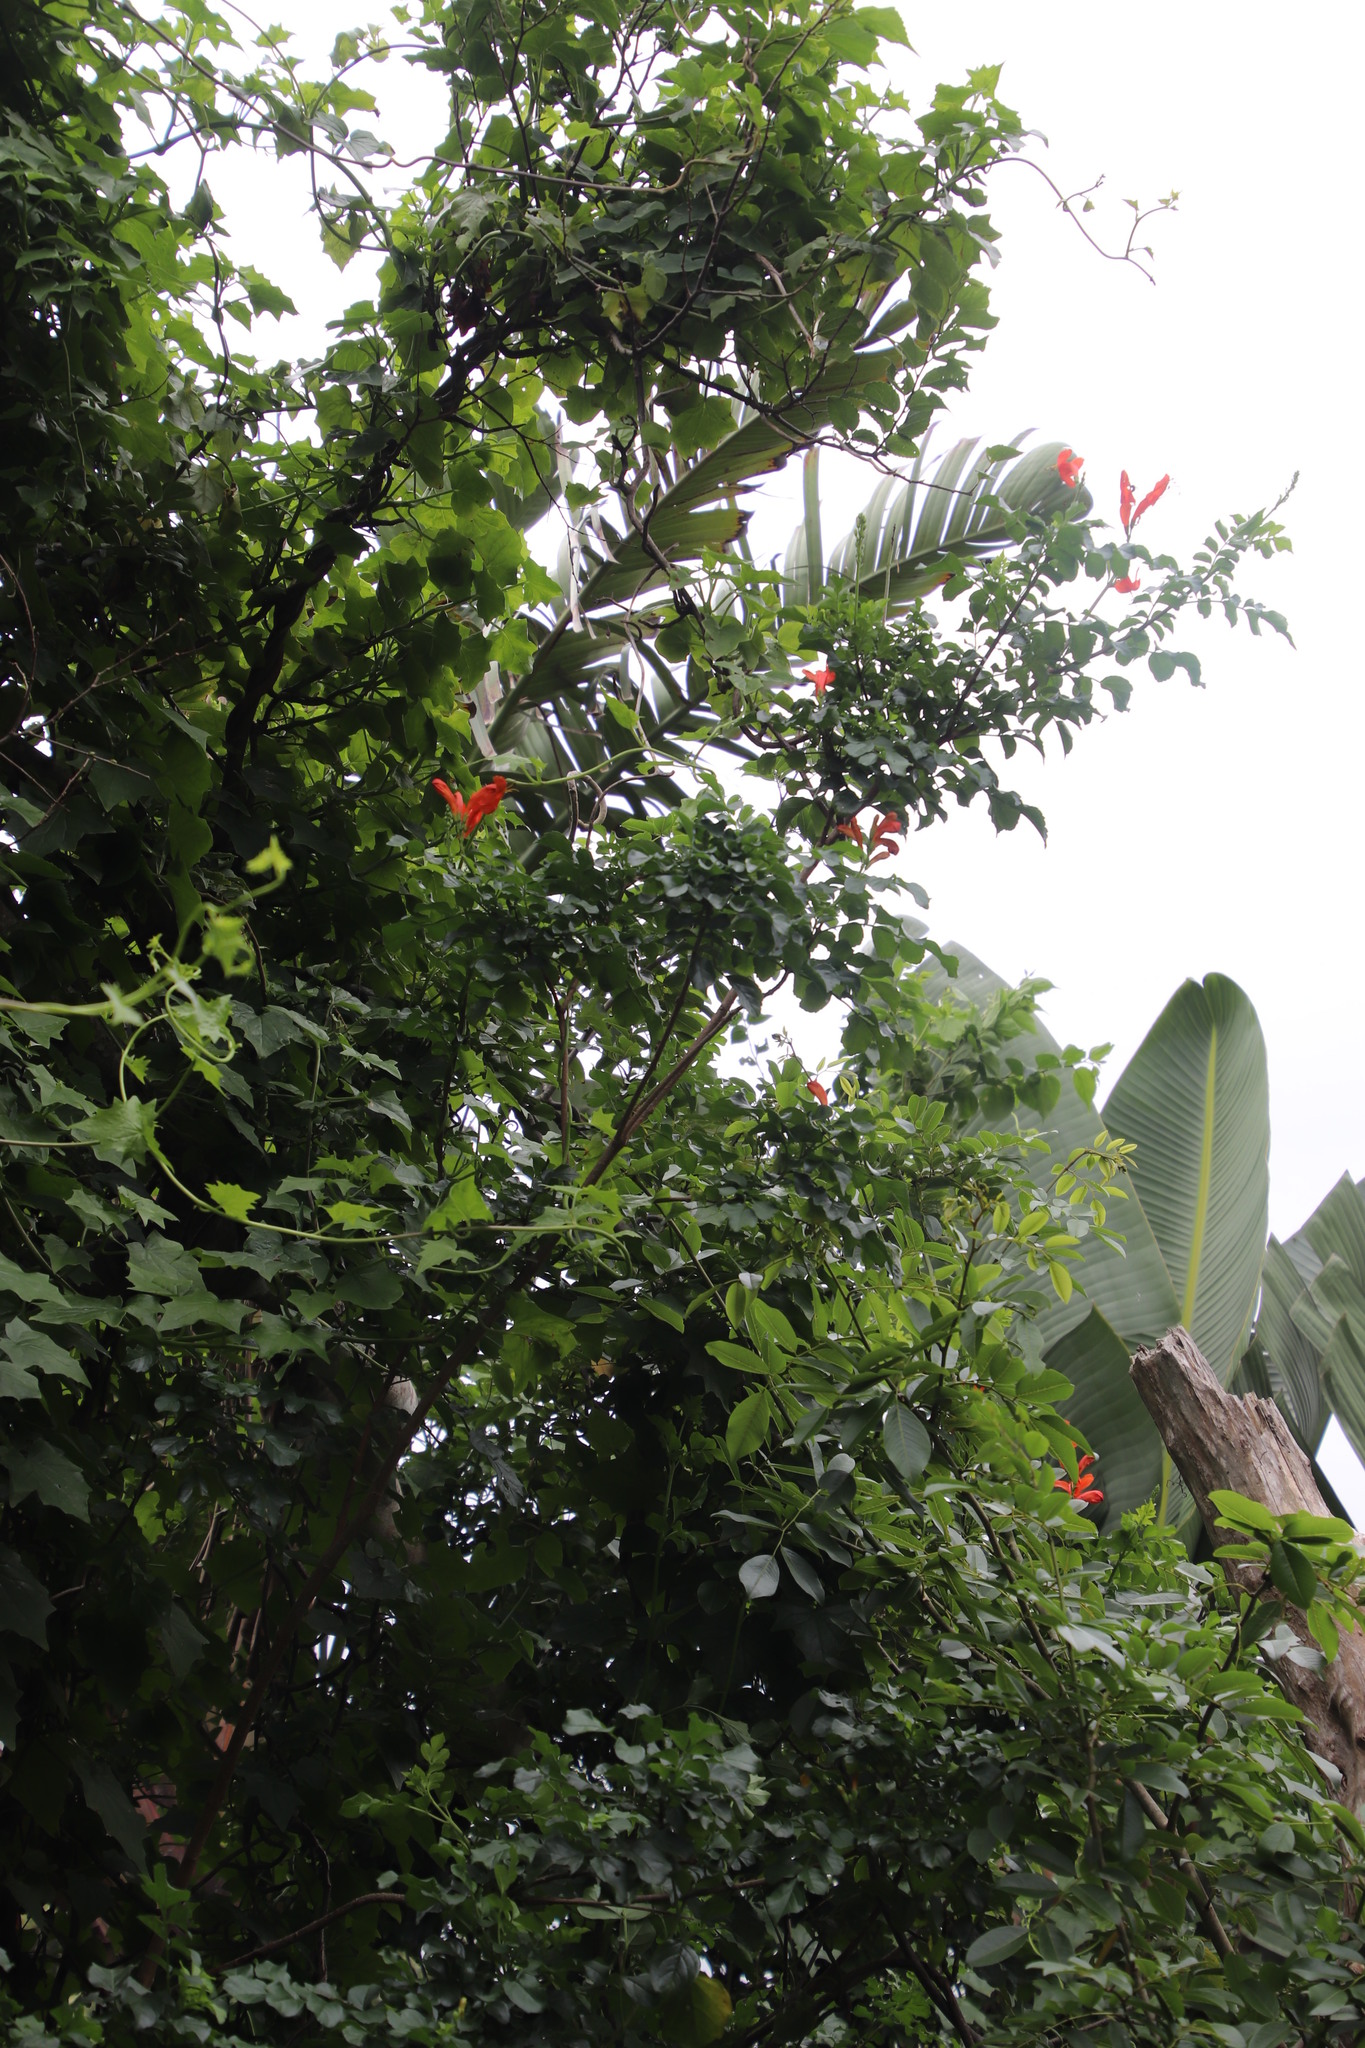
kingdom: Plantae
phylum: Tracheophyta
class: Magnoliopsida
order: Lamiales
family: Bignoniaceae
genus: Tecomaria
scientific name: Tecomaria capensis
